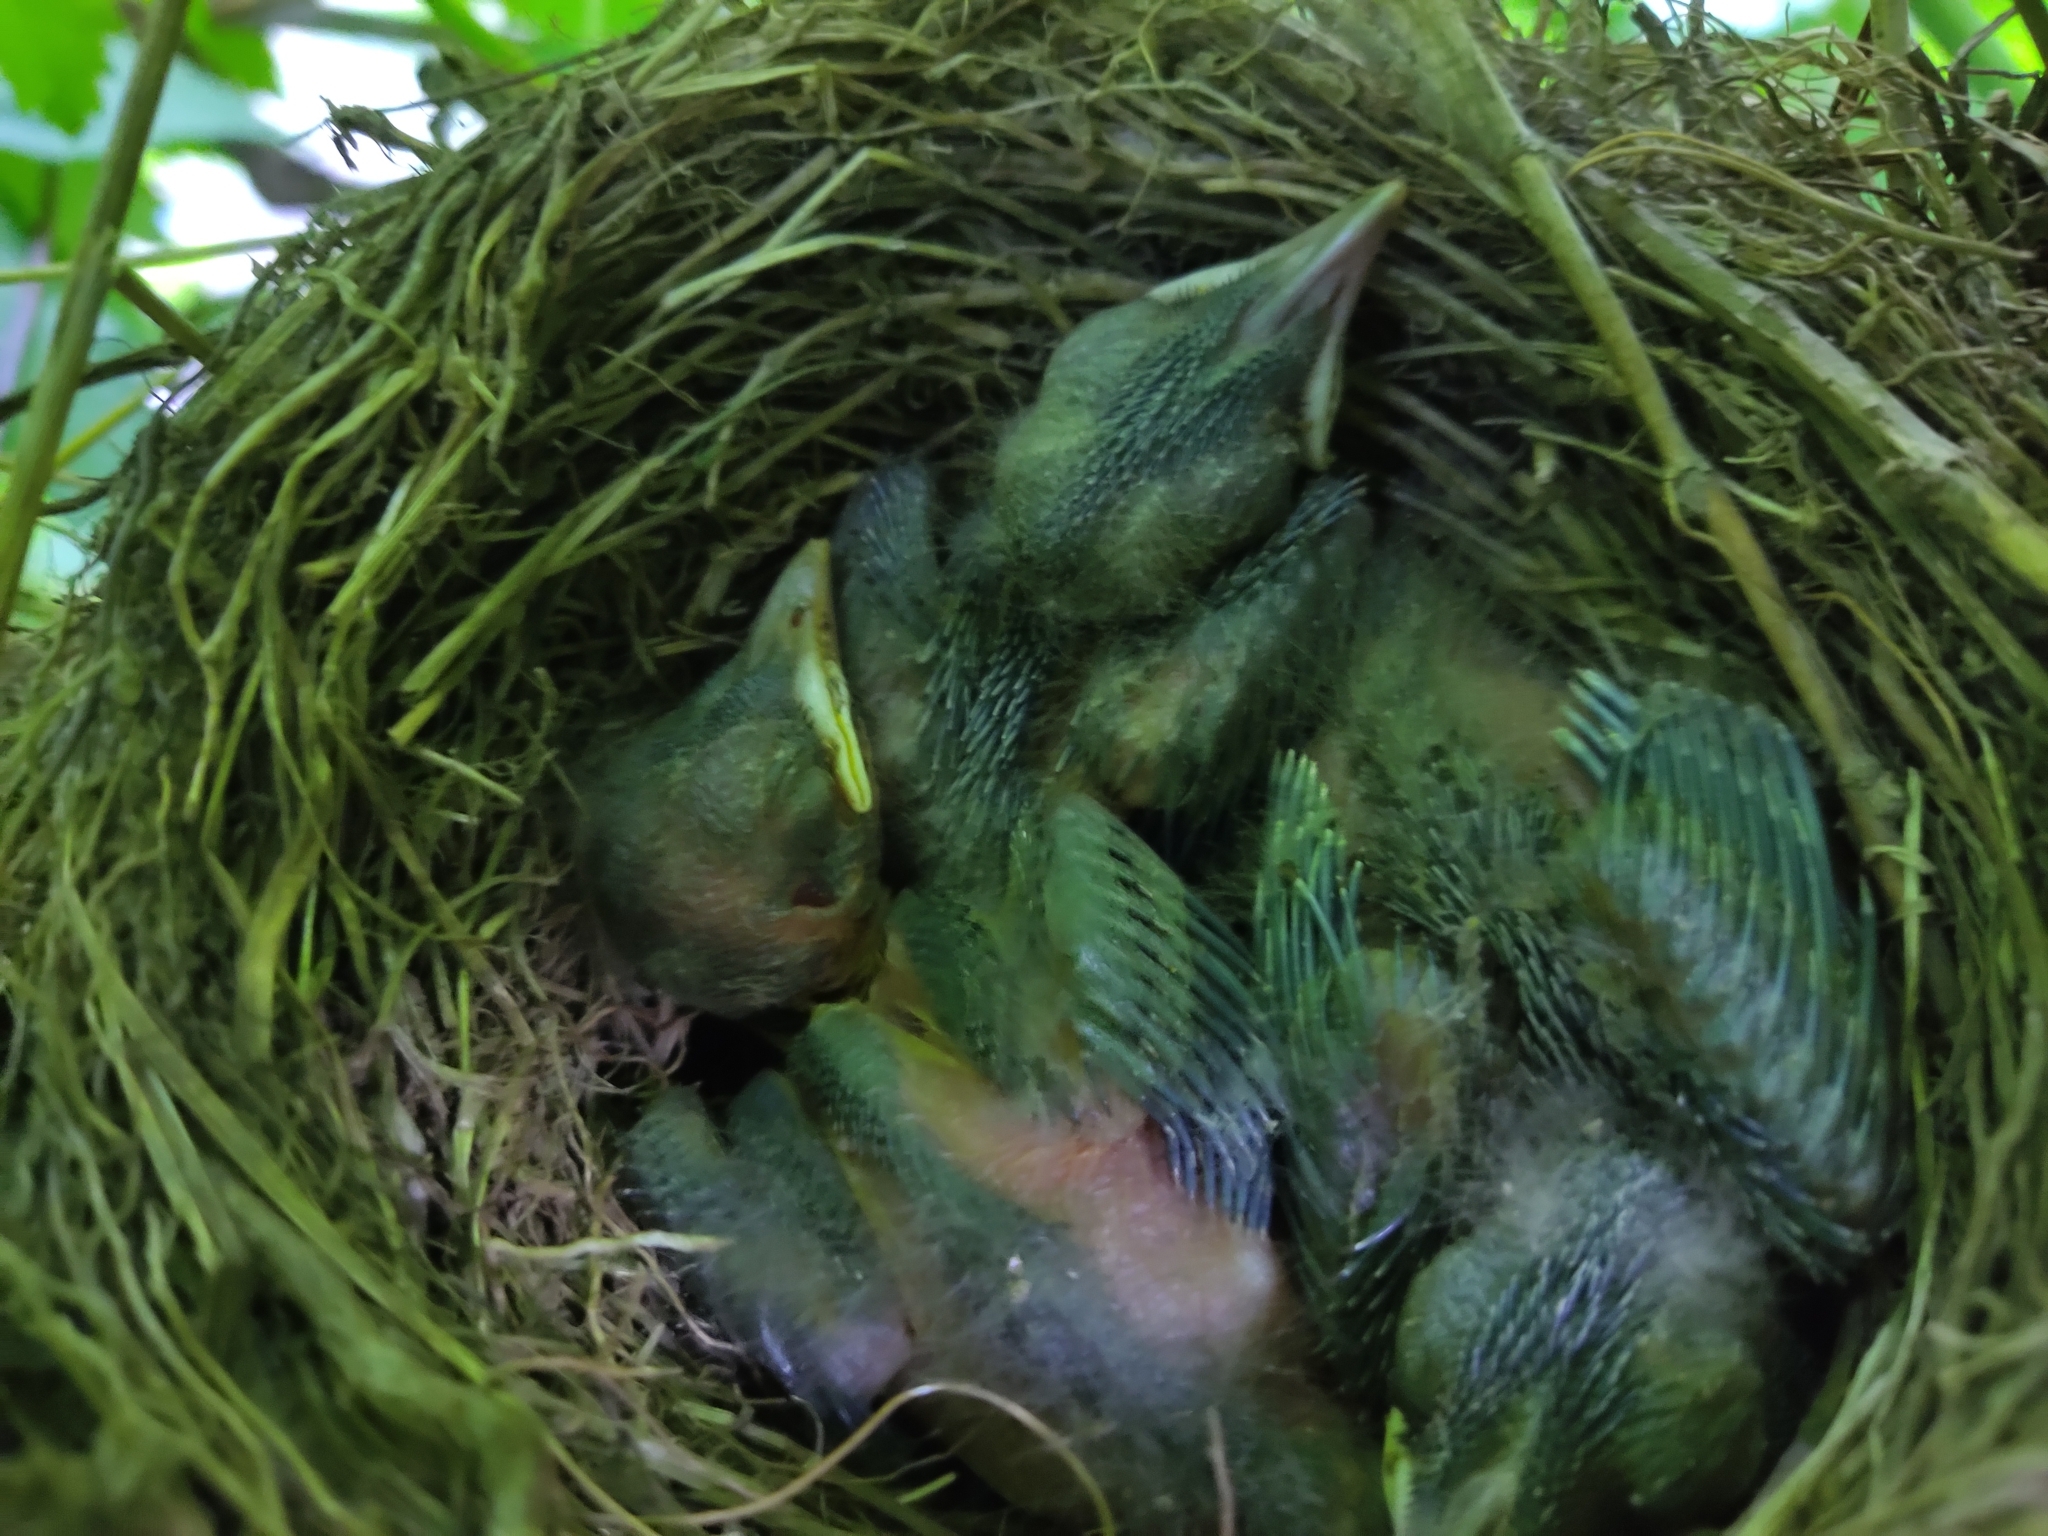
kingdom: Animalia
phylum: Chordata
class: Aves
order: Passeriformes
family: Turdidae
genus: Turdus
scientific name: Turdus merula
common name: Common blackbird
